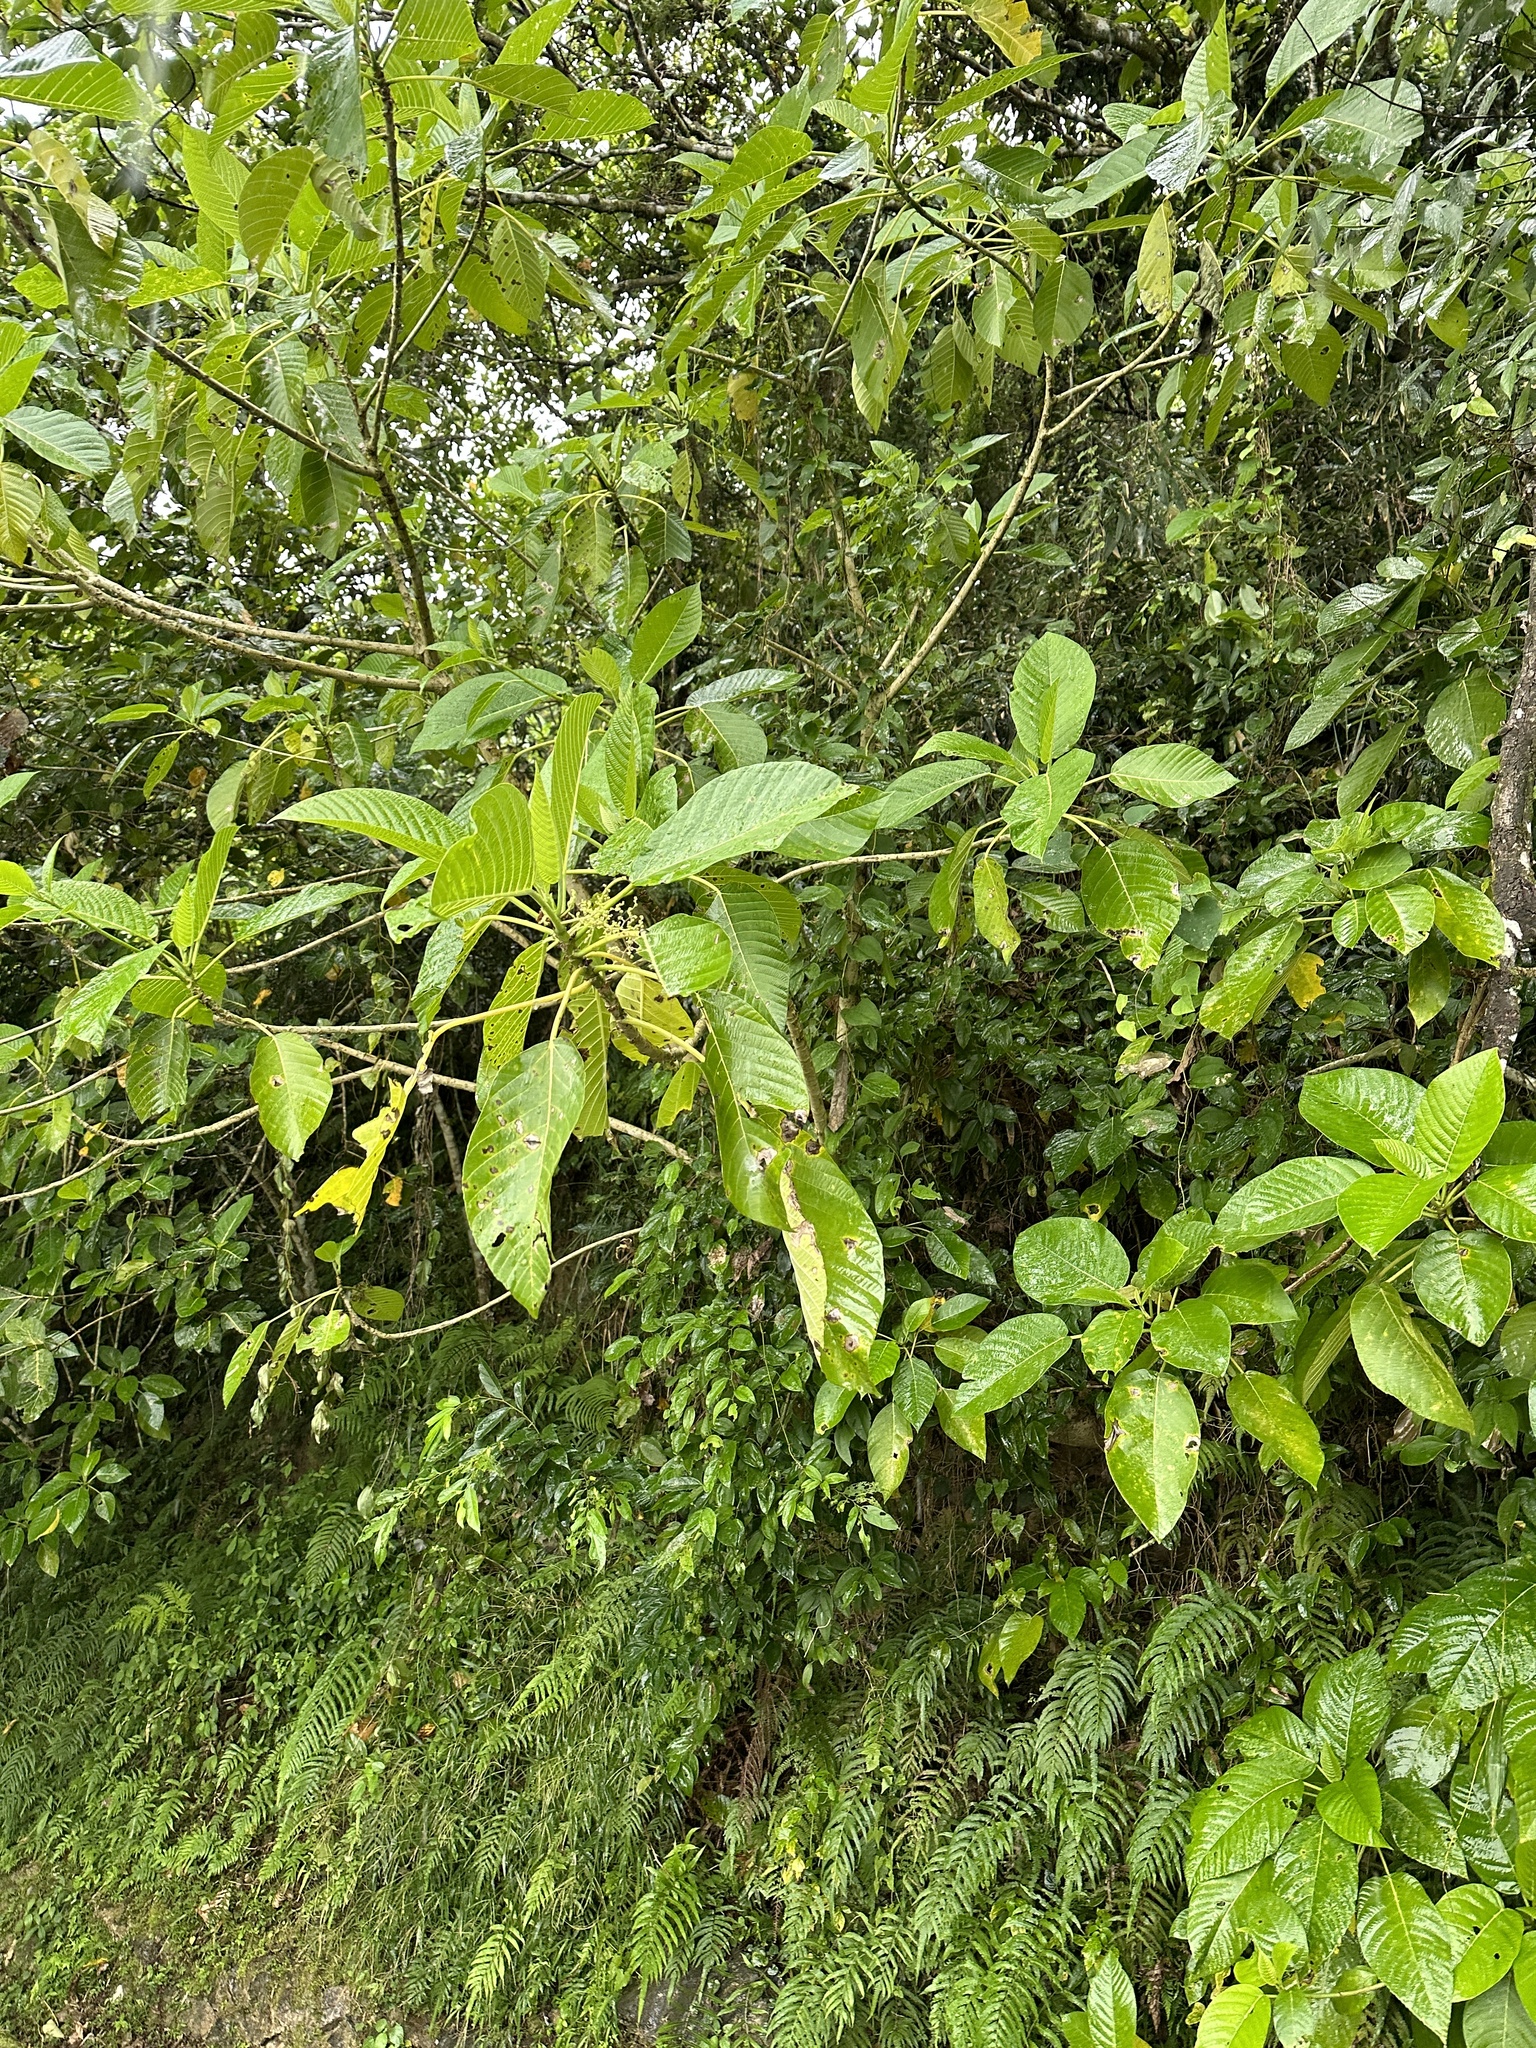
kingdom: Plantae
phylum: Tracheophyta
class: Magnoliopsida
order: Rosales
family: Urticaceae
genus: Dendrocnide
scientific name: Dendrocnide meyeniana
